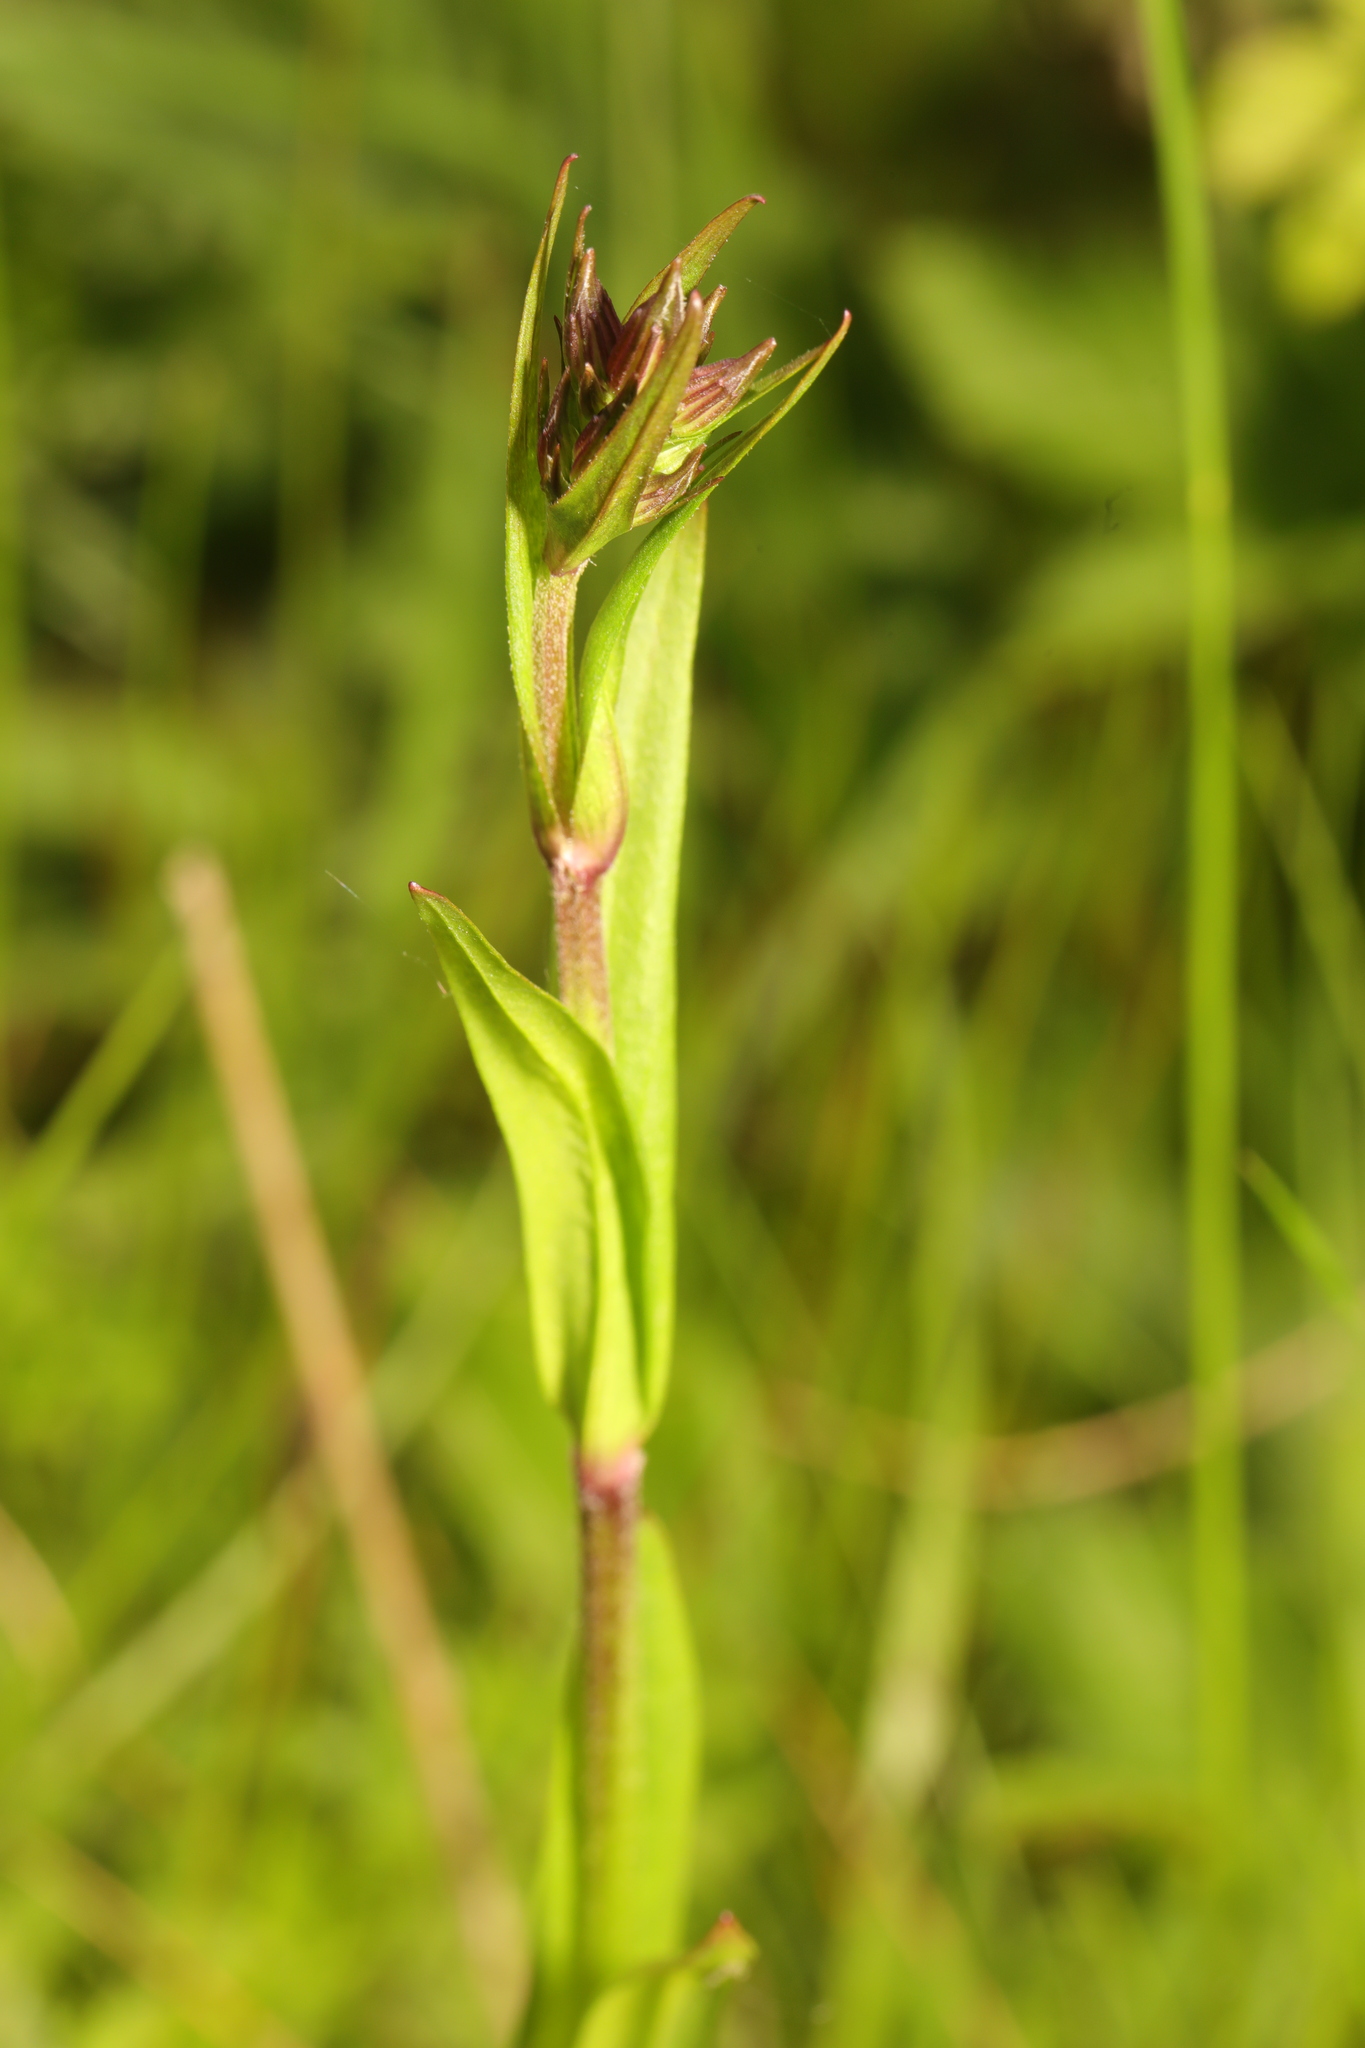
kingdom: Plantae
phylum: Tracheophyta
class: Magnoliopsida
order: Caryophyllales
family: Caryophyllaceae
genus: Silene
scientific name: Silene flos-cuculi
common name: Ragged-robin
